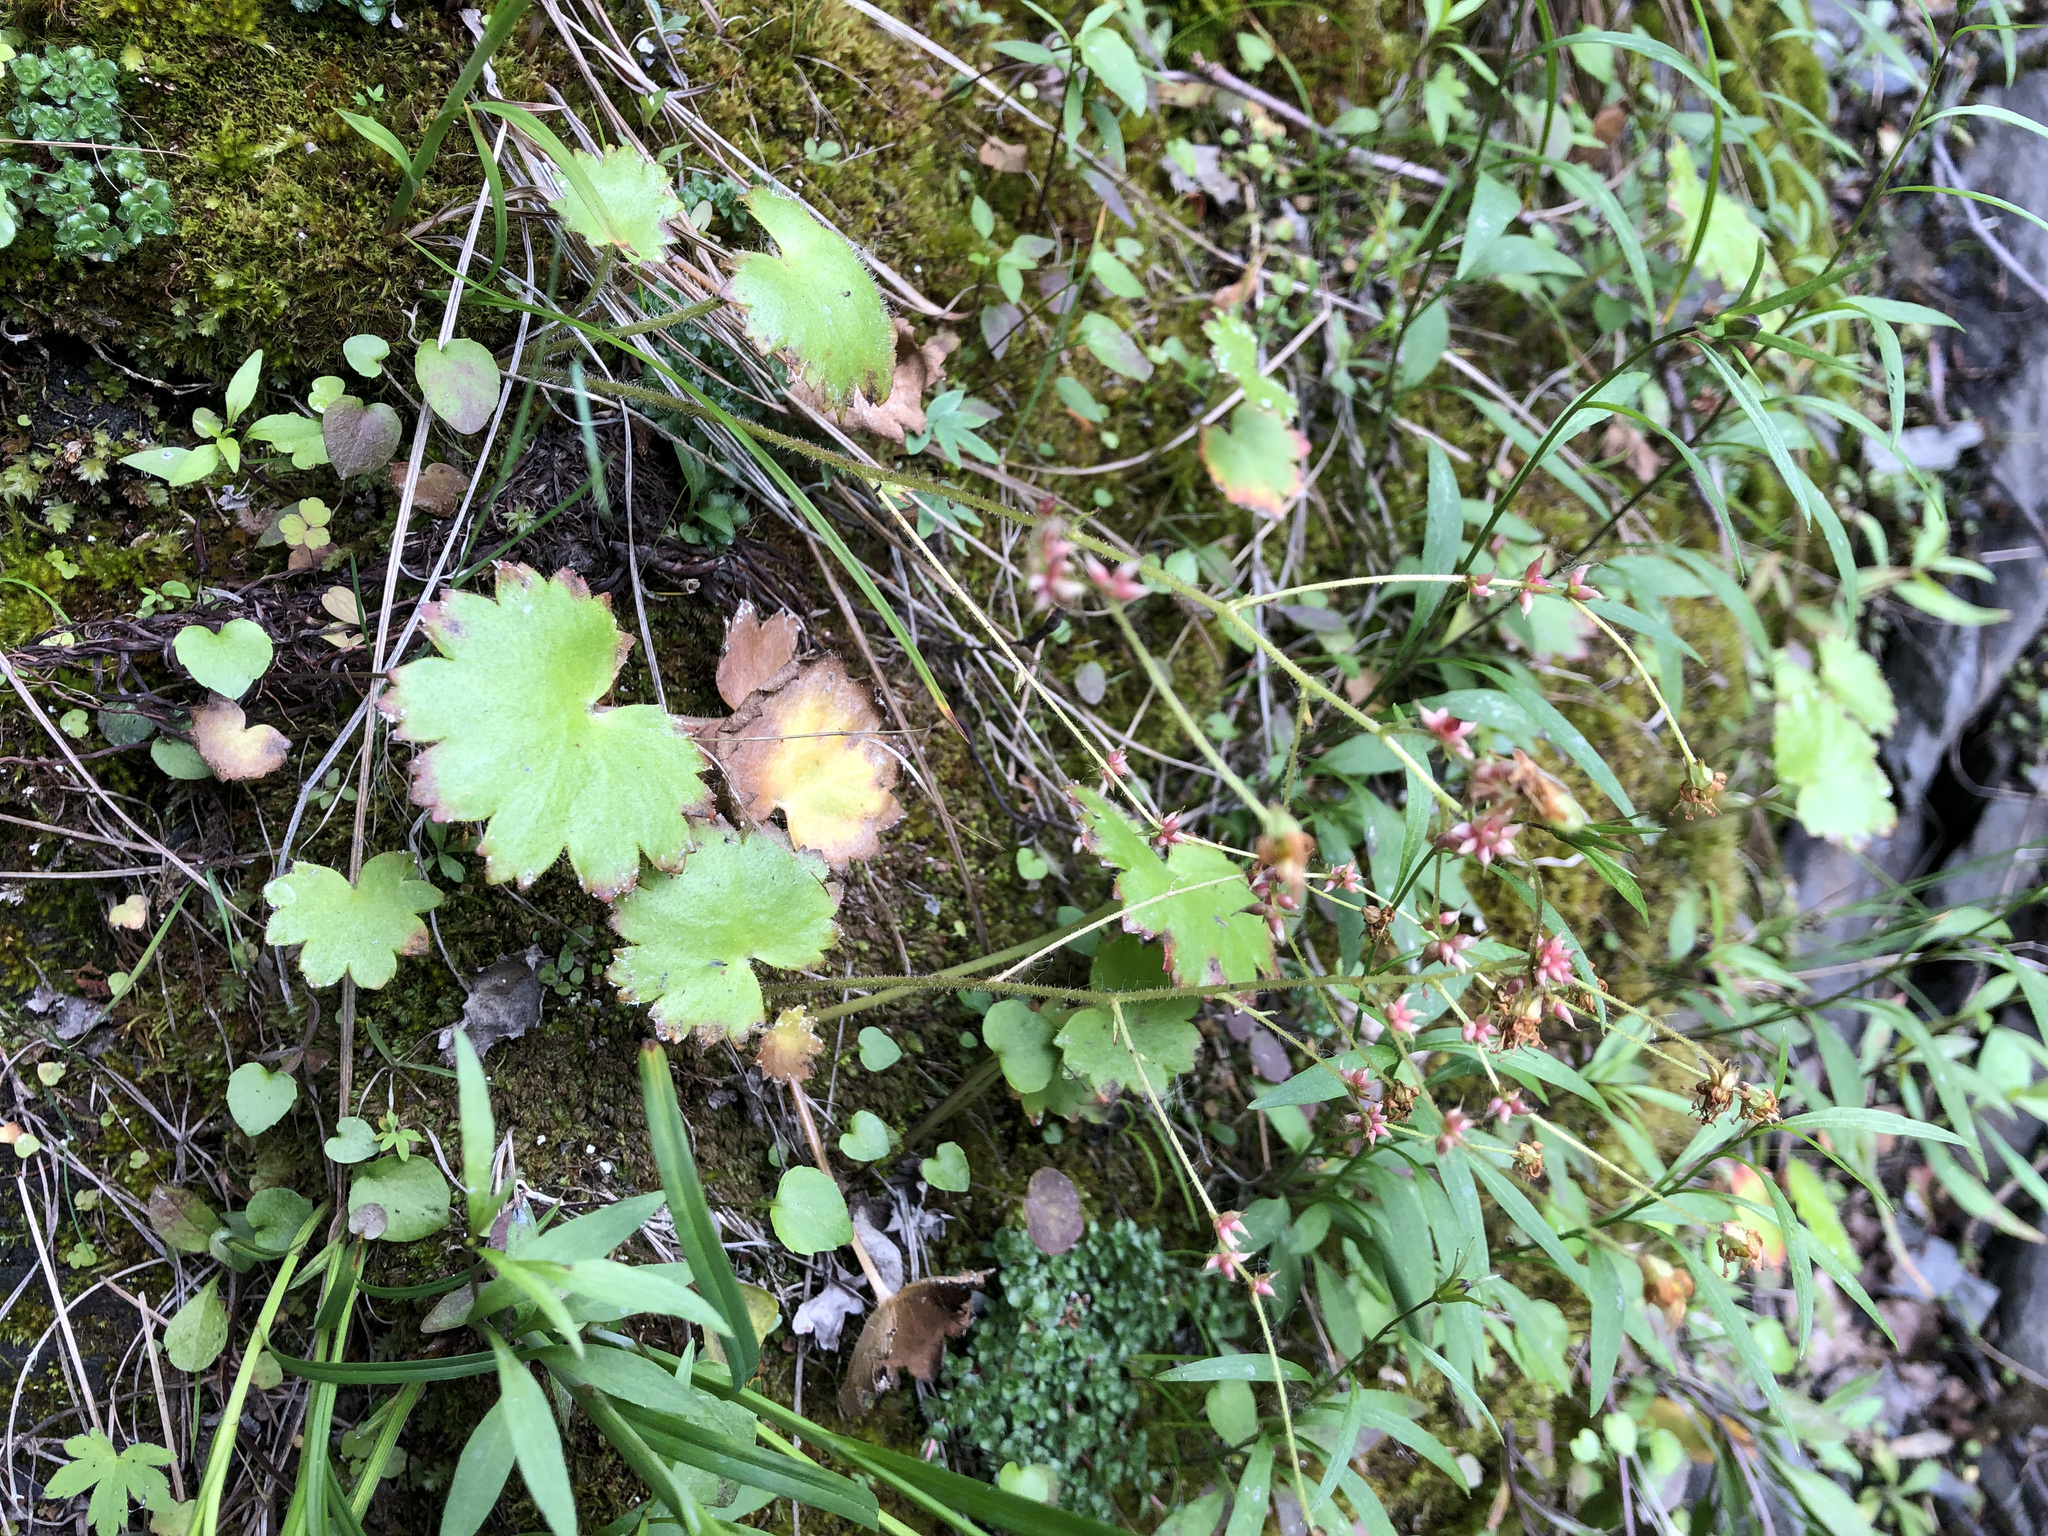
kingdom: Plantae
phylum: Tracheophyta
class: Magnoliopsida
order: Saxifragales
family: Saxifragaceae
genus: Micranthes
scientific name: Micranthes mertensiana
